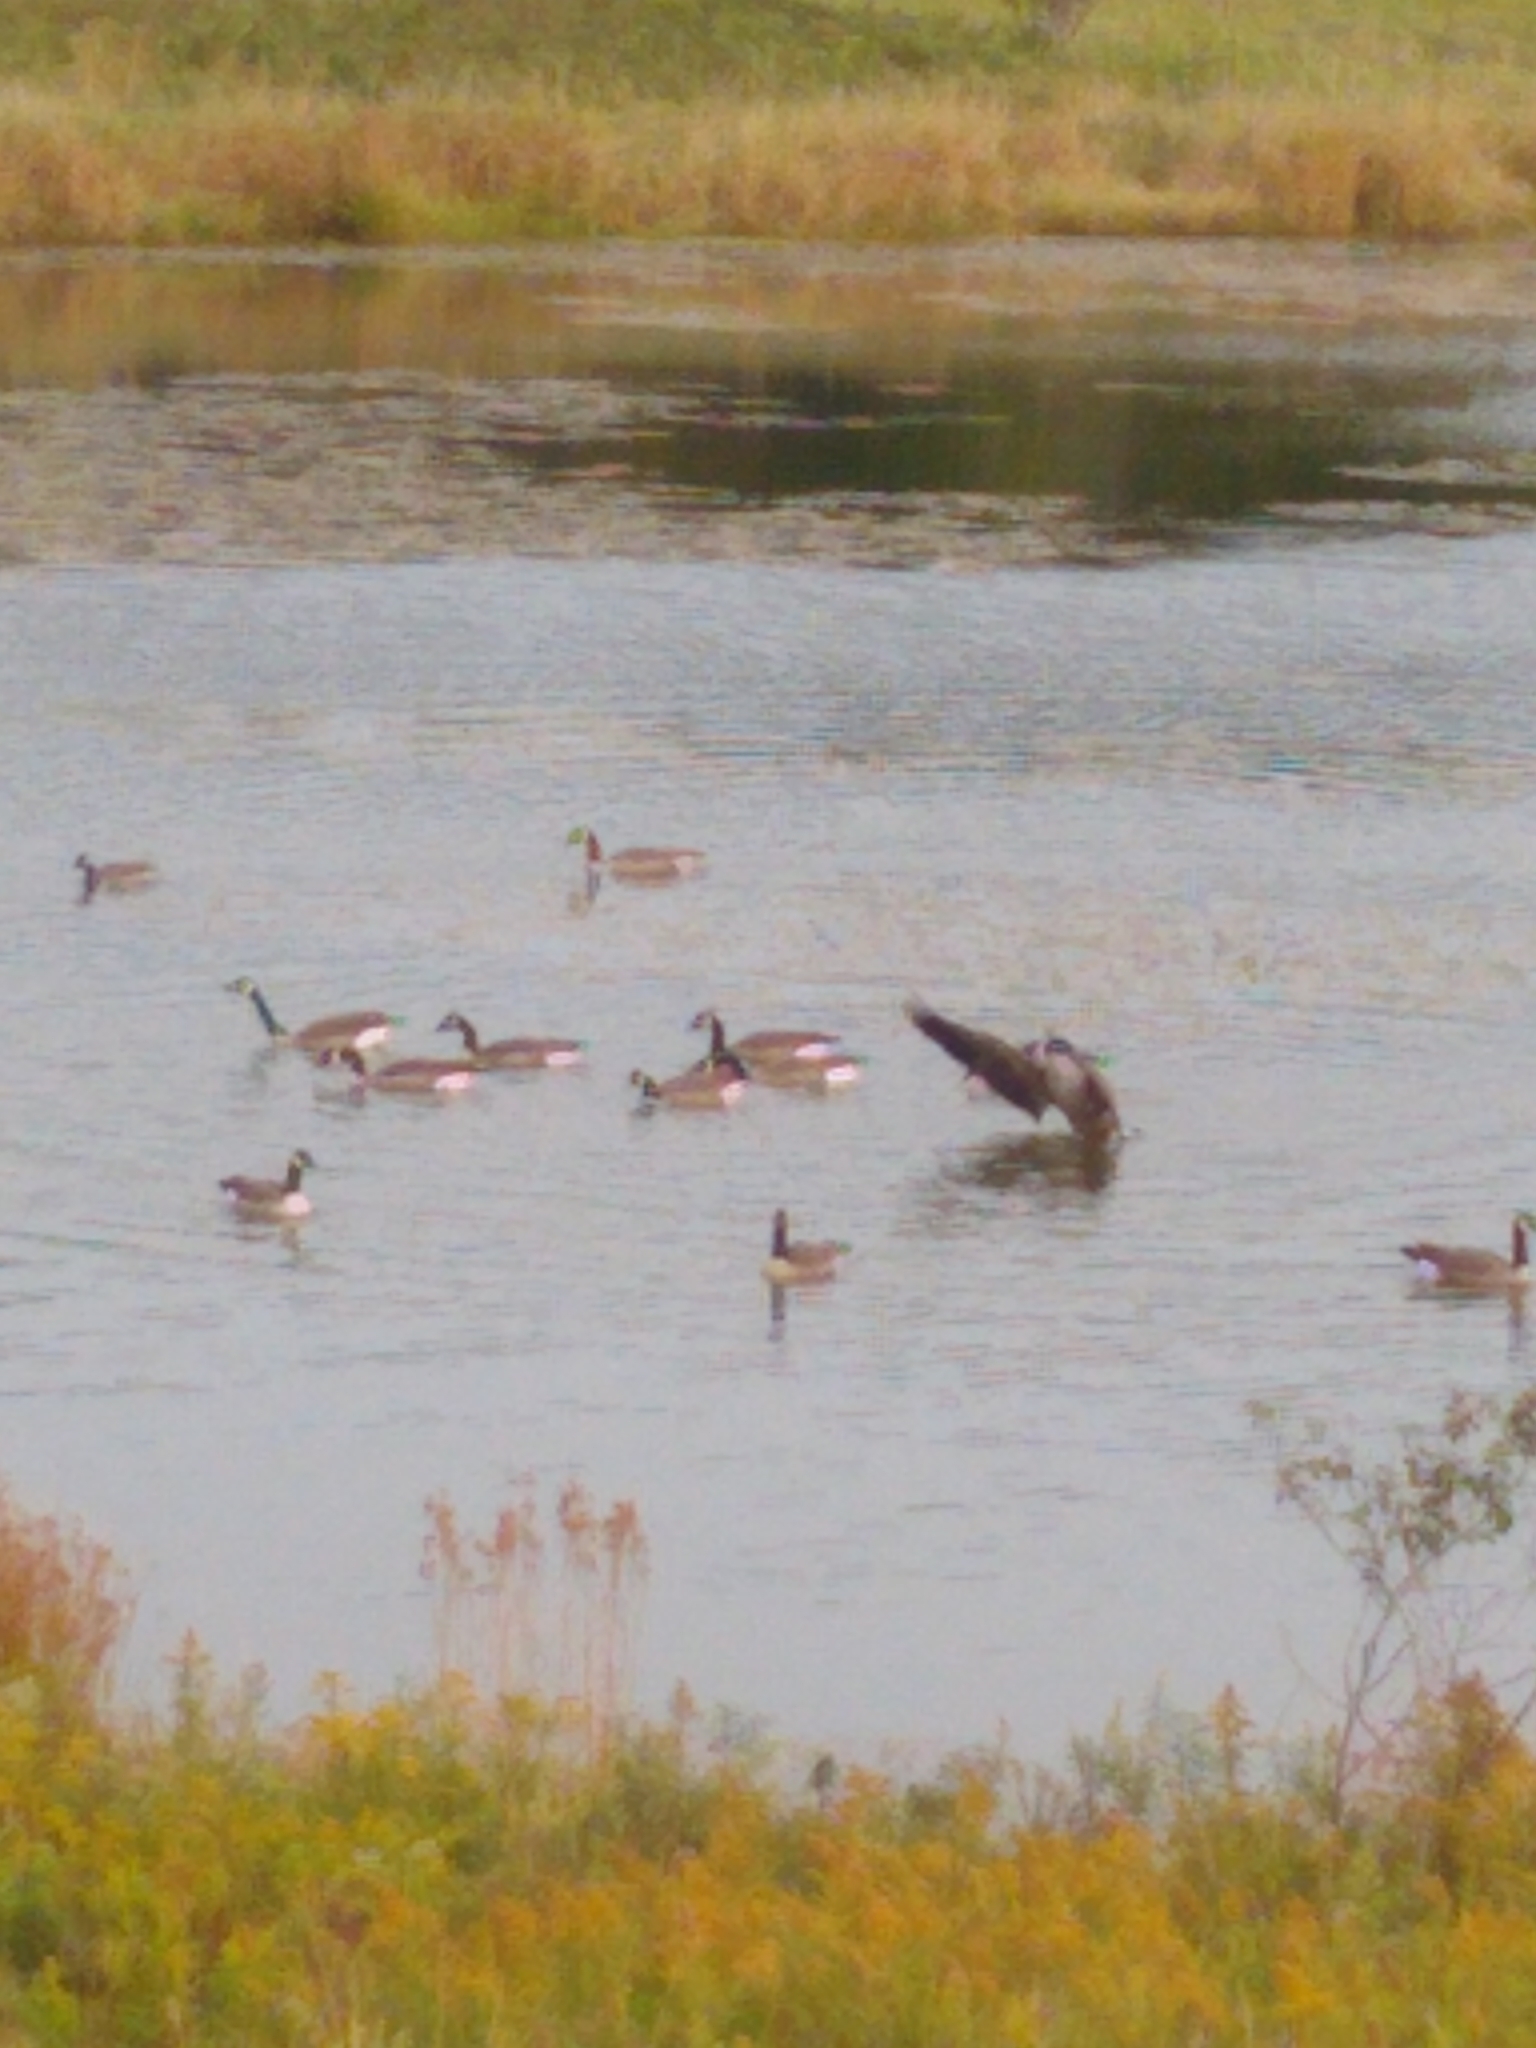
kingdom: Animalia
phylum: Chordata
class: Aves
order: Anseriformes
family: Anatidae
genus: Branta
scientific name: Branta canadensis
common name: Canada goose
